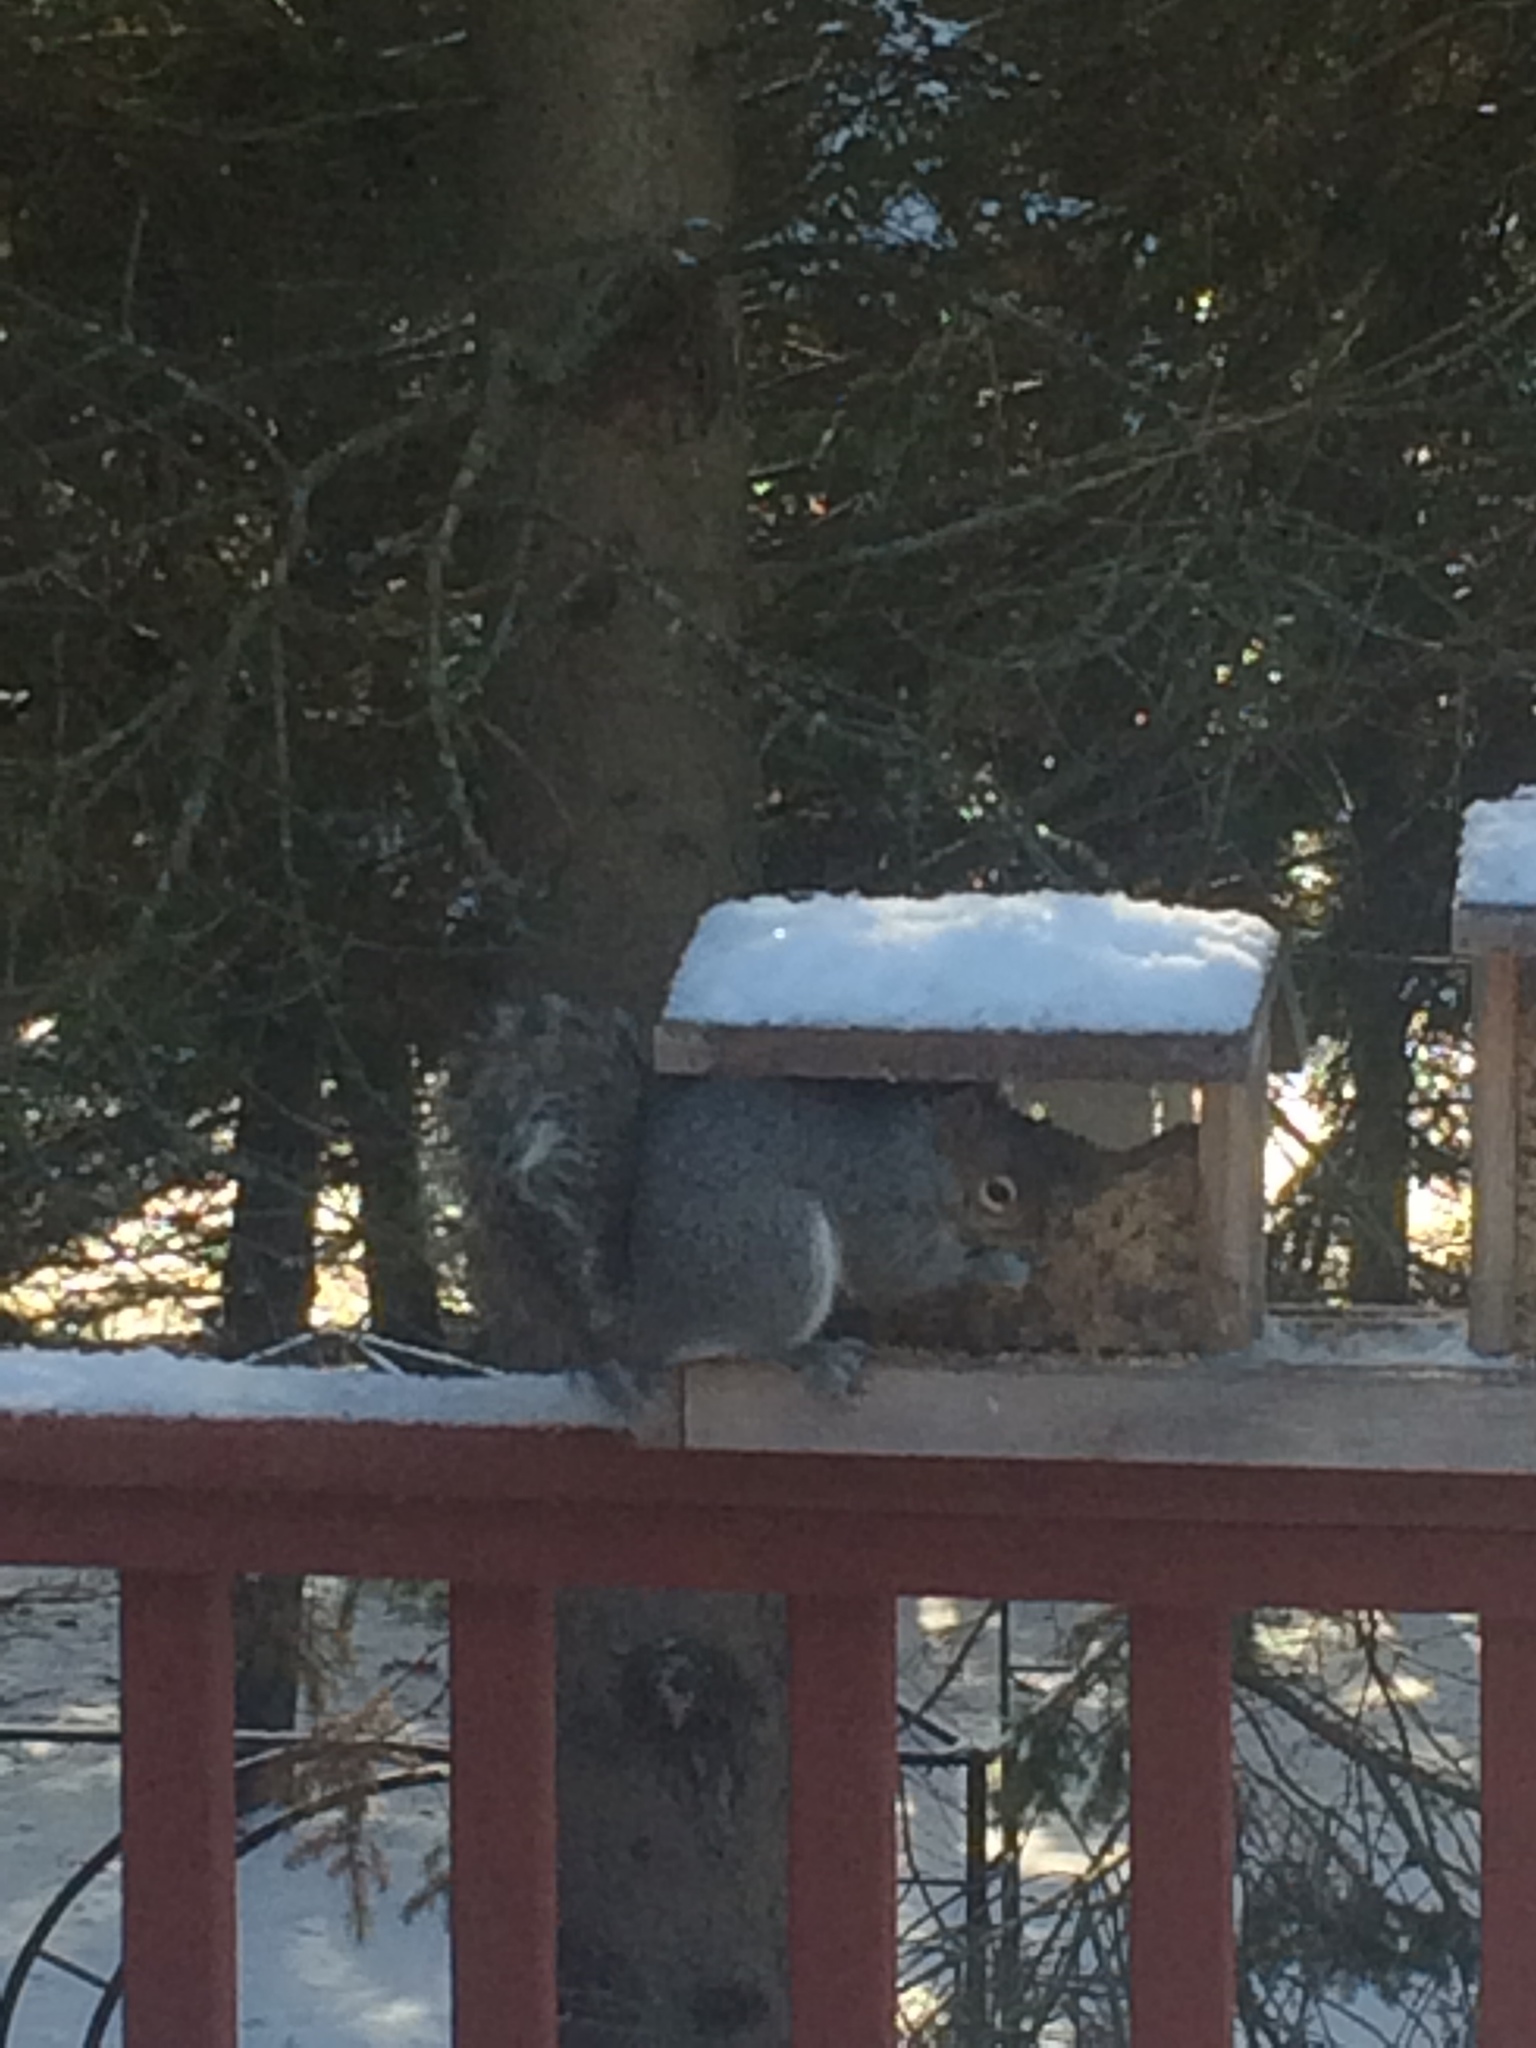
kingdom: Animalia
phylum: Chordata
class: Mammalia
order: Rodentia
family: Sciuridae
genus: Sciurus
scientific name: Sciurus carolinensis
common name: Eastern gray squirrel
